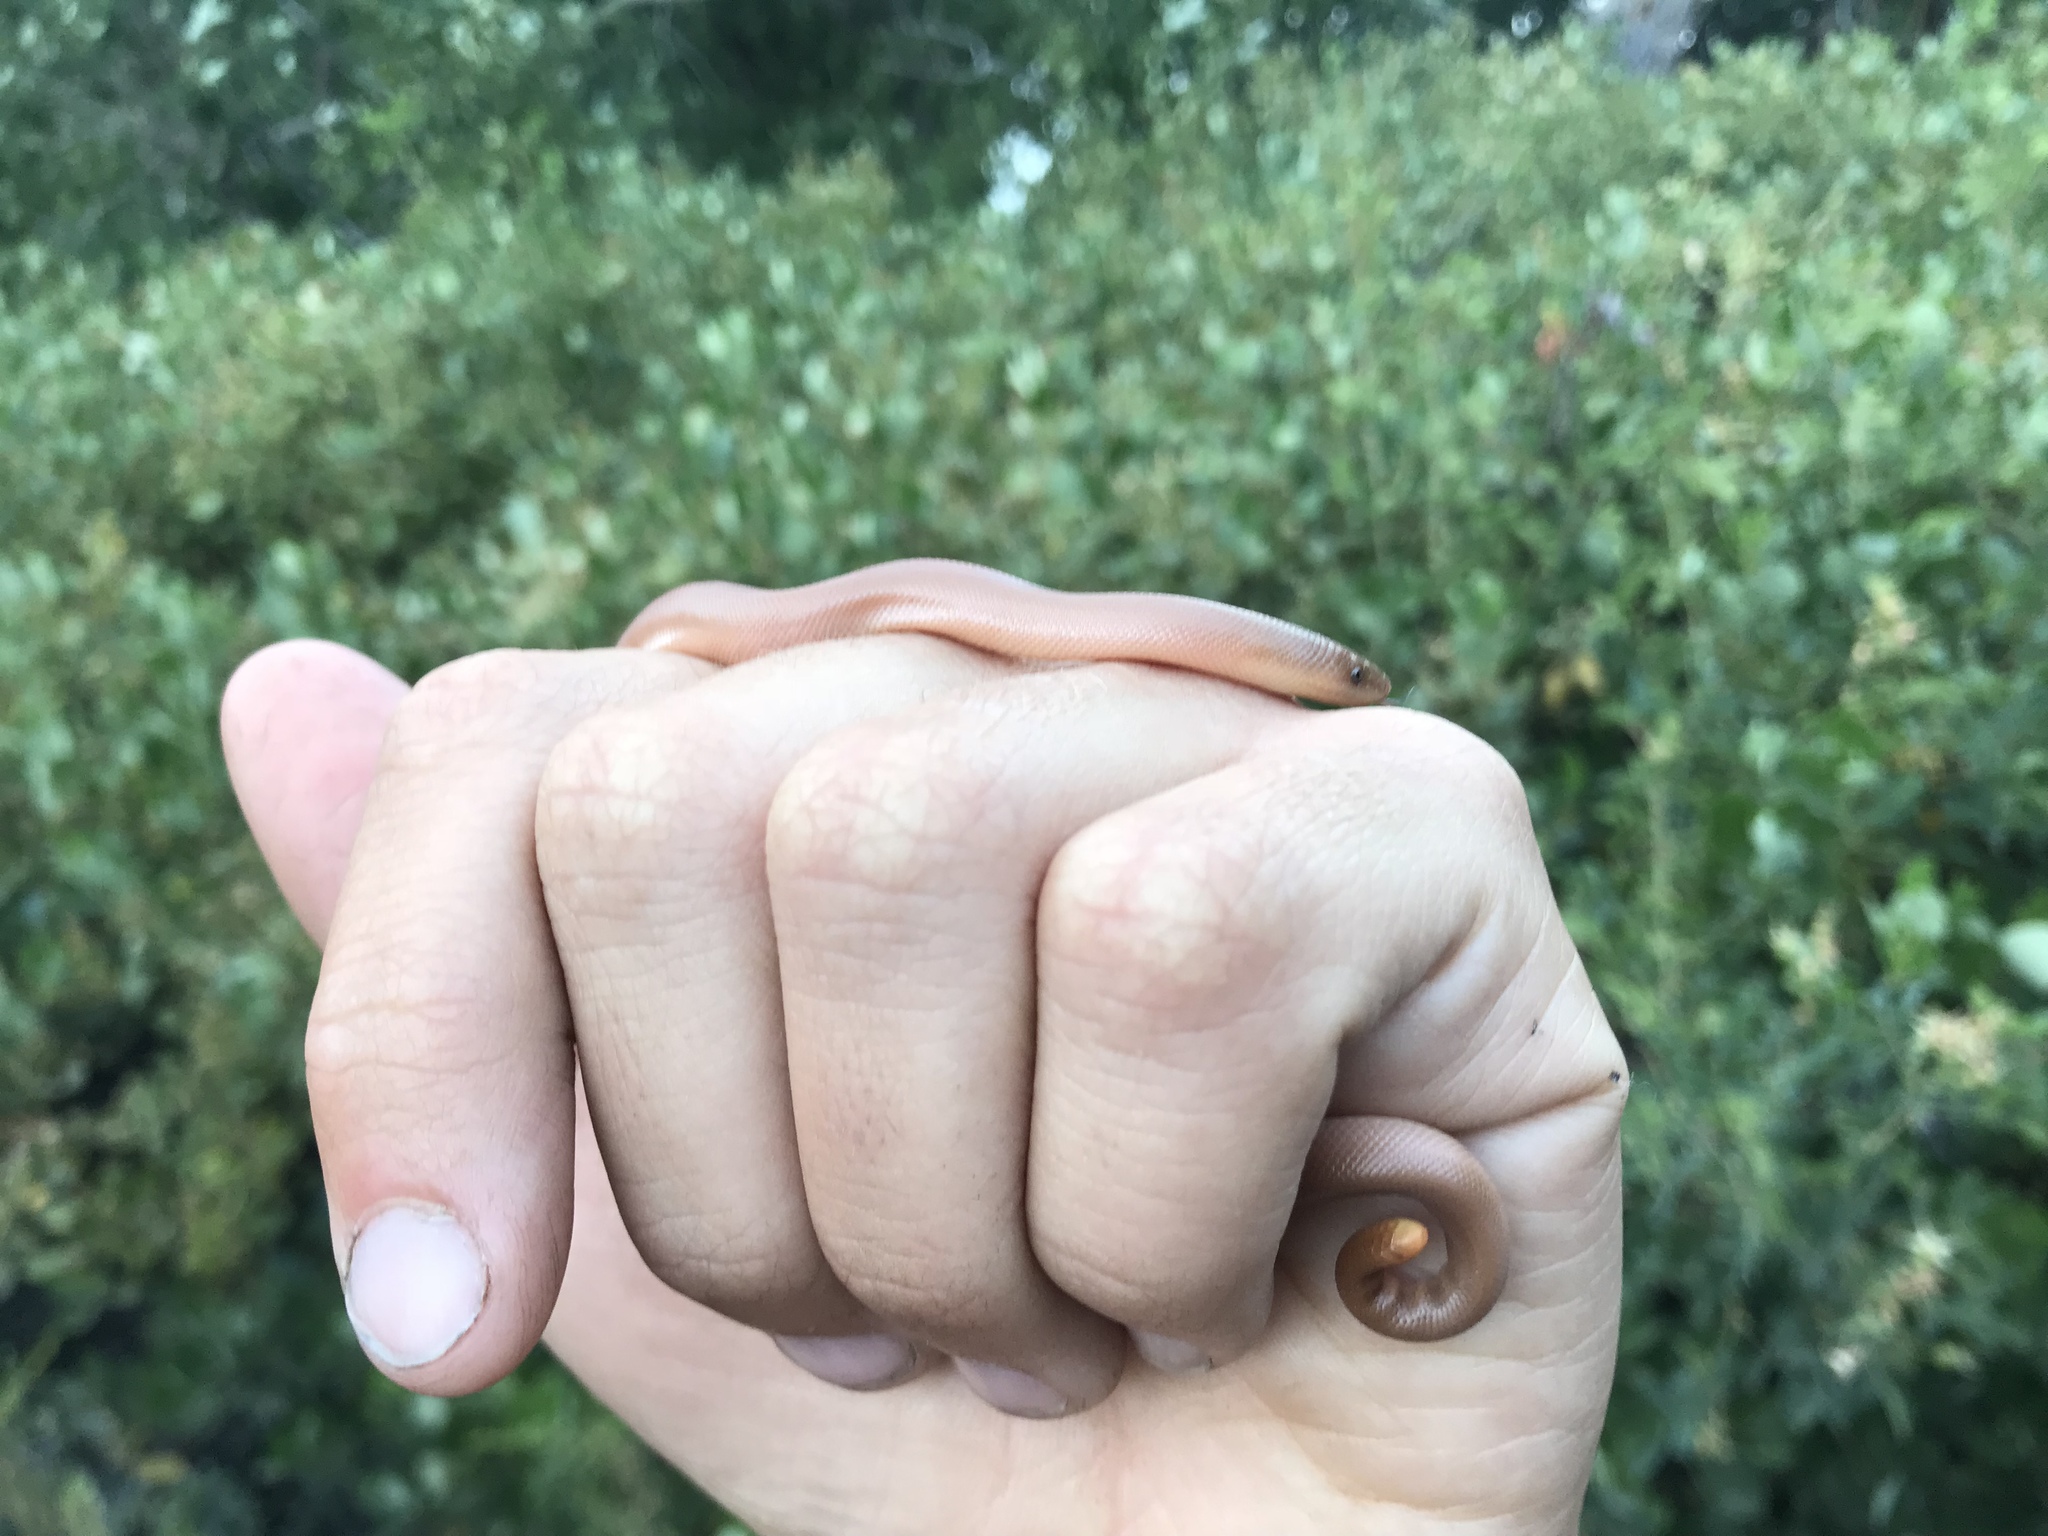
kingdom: Animalia
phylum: Chordata
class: Squamata
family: Boidae
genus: Charina
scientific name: Charina bottae
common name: Northern rubber boa
